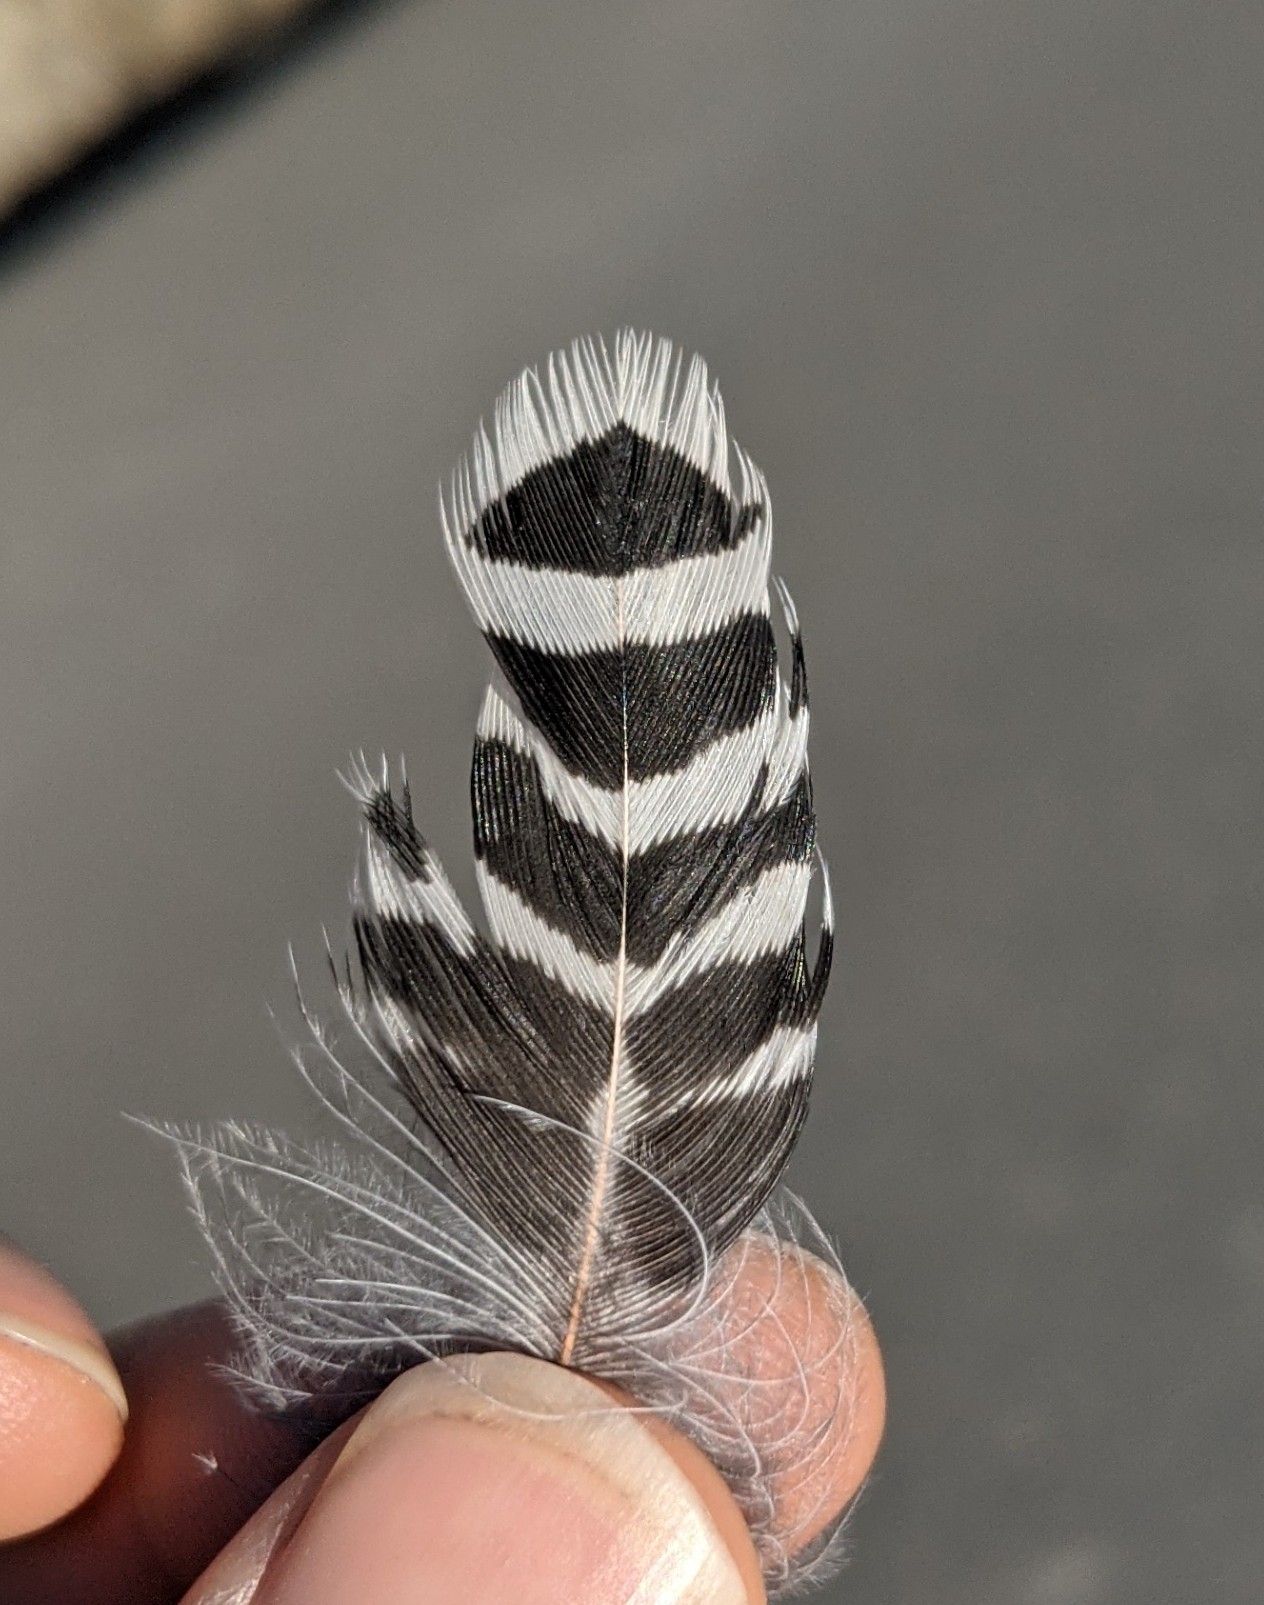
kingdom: Animalia
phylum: Chordata
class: Aves
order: Piciformes
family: Picidae
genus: Colaptes
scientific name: Colaptes auratus
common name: Northern flicker
